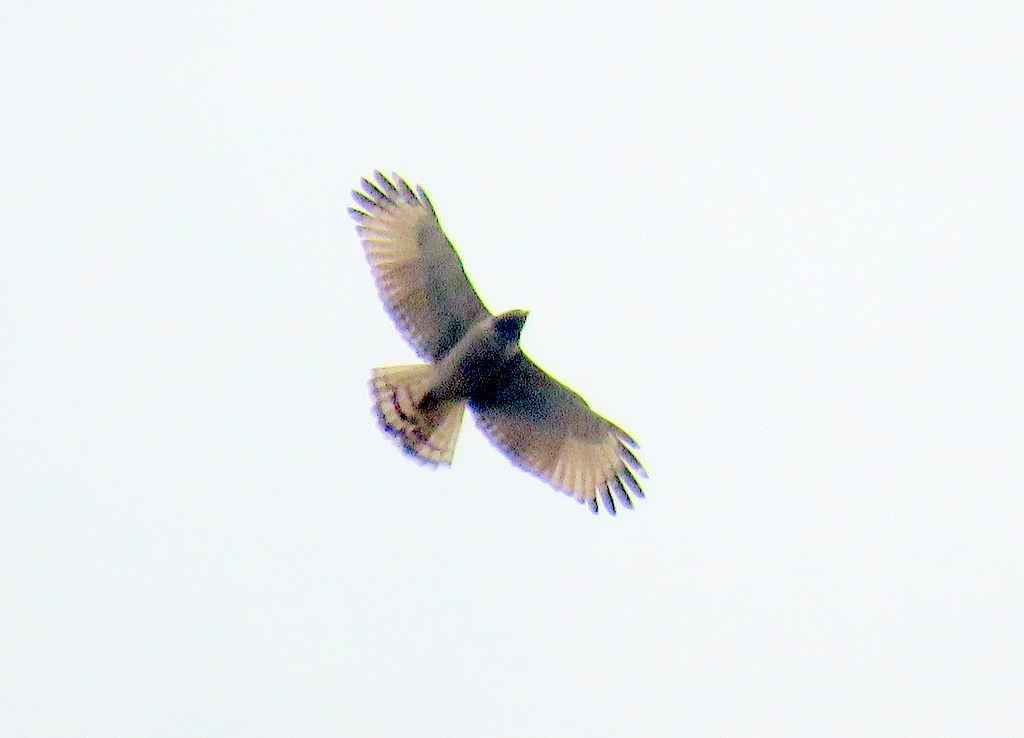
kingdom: Animalia
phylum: Chordata
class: Aves
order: Accipitriformes
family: Accipitridae
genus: Rupornis
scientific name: Rupornis magnirostris
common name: Roadside hawk
